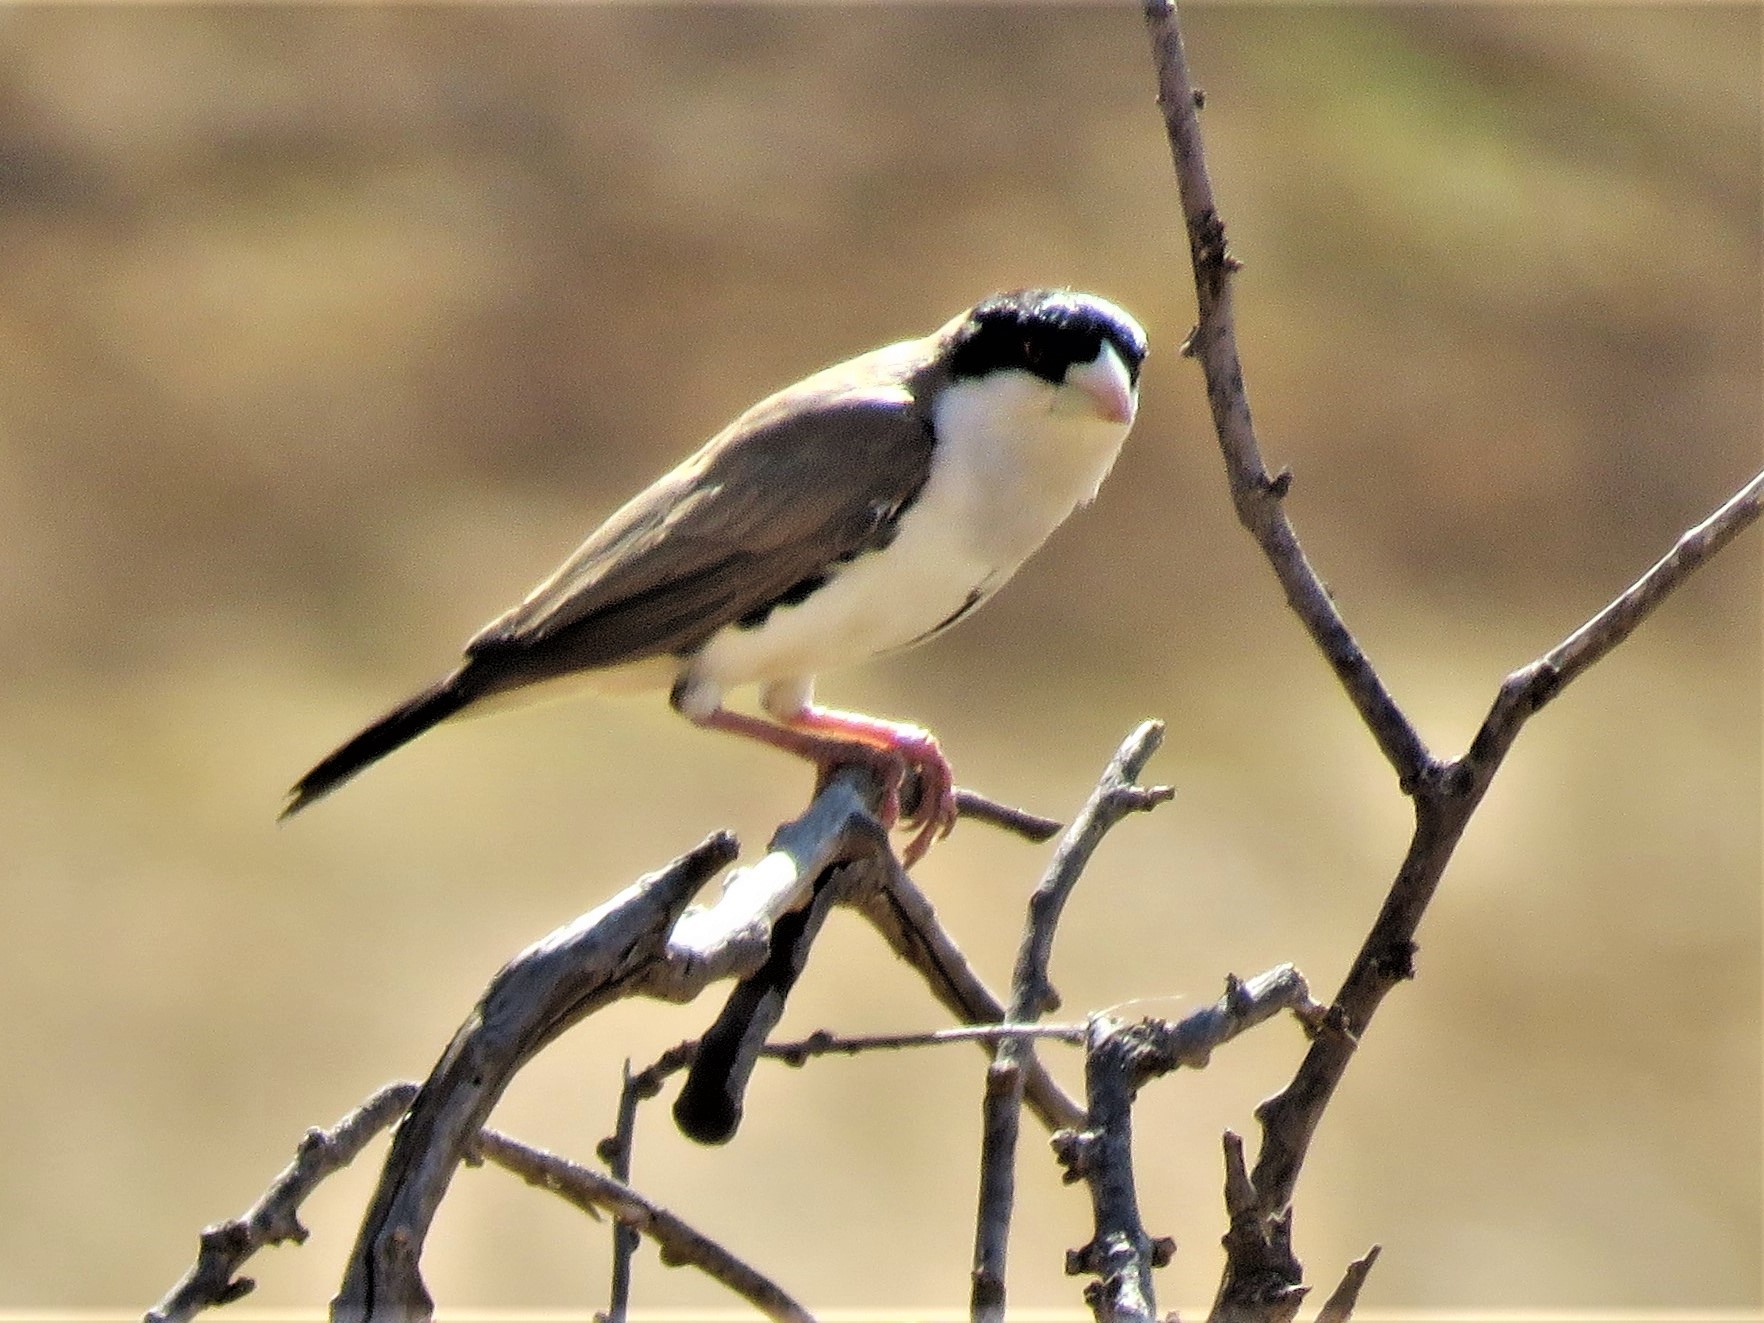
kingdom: Animalia
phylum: Chordata
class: Aves
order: Passeriformes
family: Passeridae
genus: Pseudonigrita
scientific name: Pseudonigrita cabanisi
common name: Black-capped social weaver
